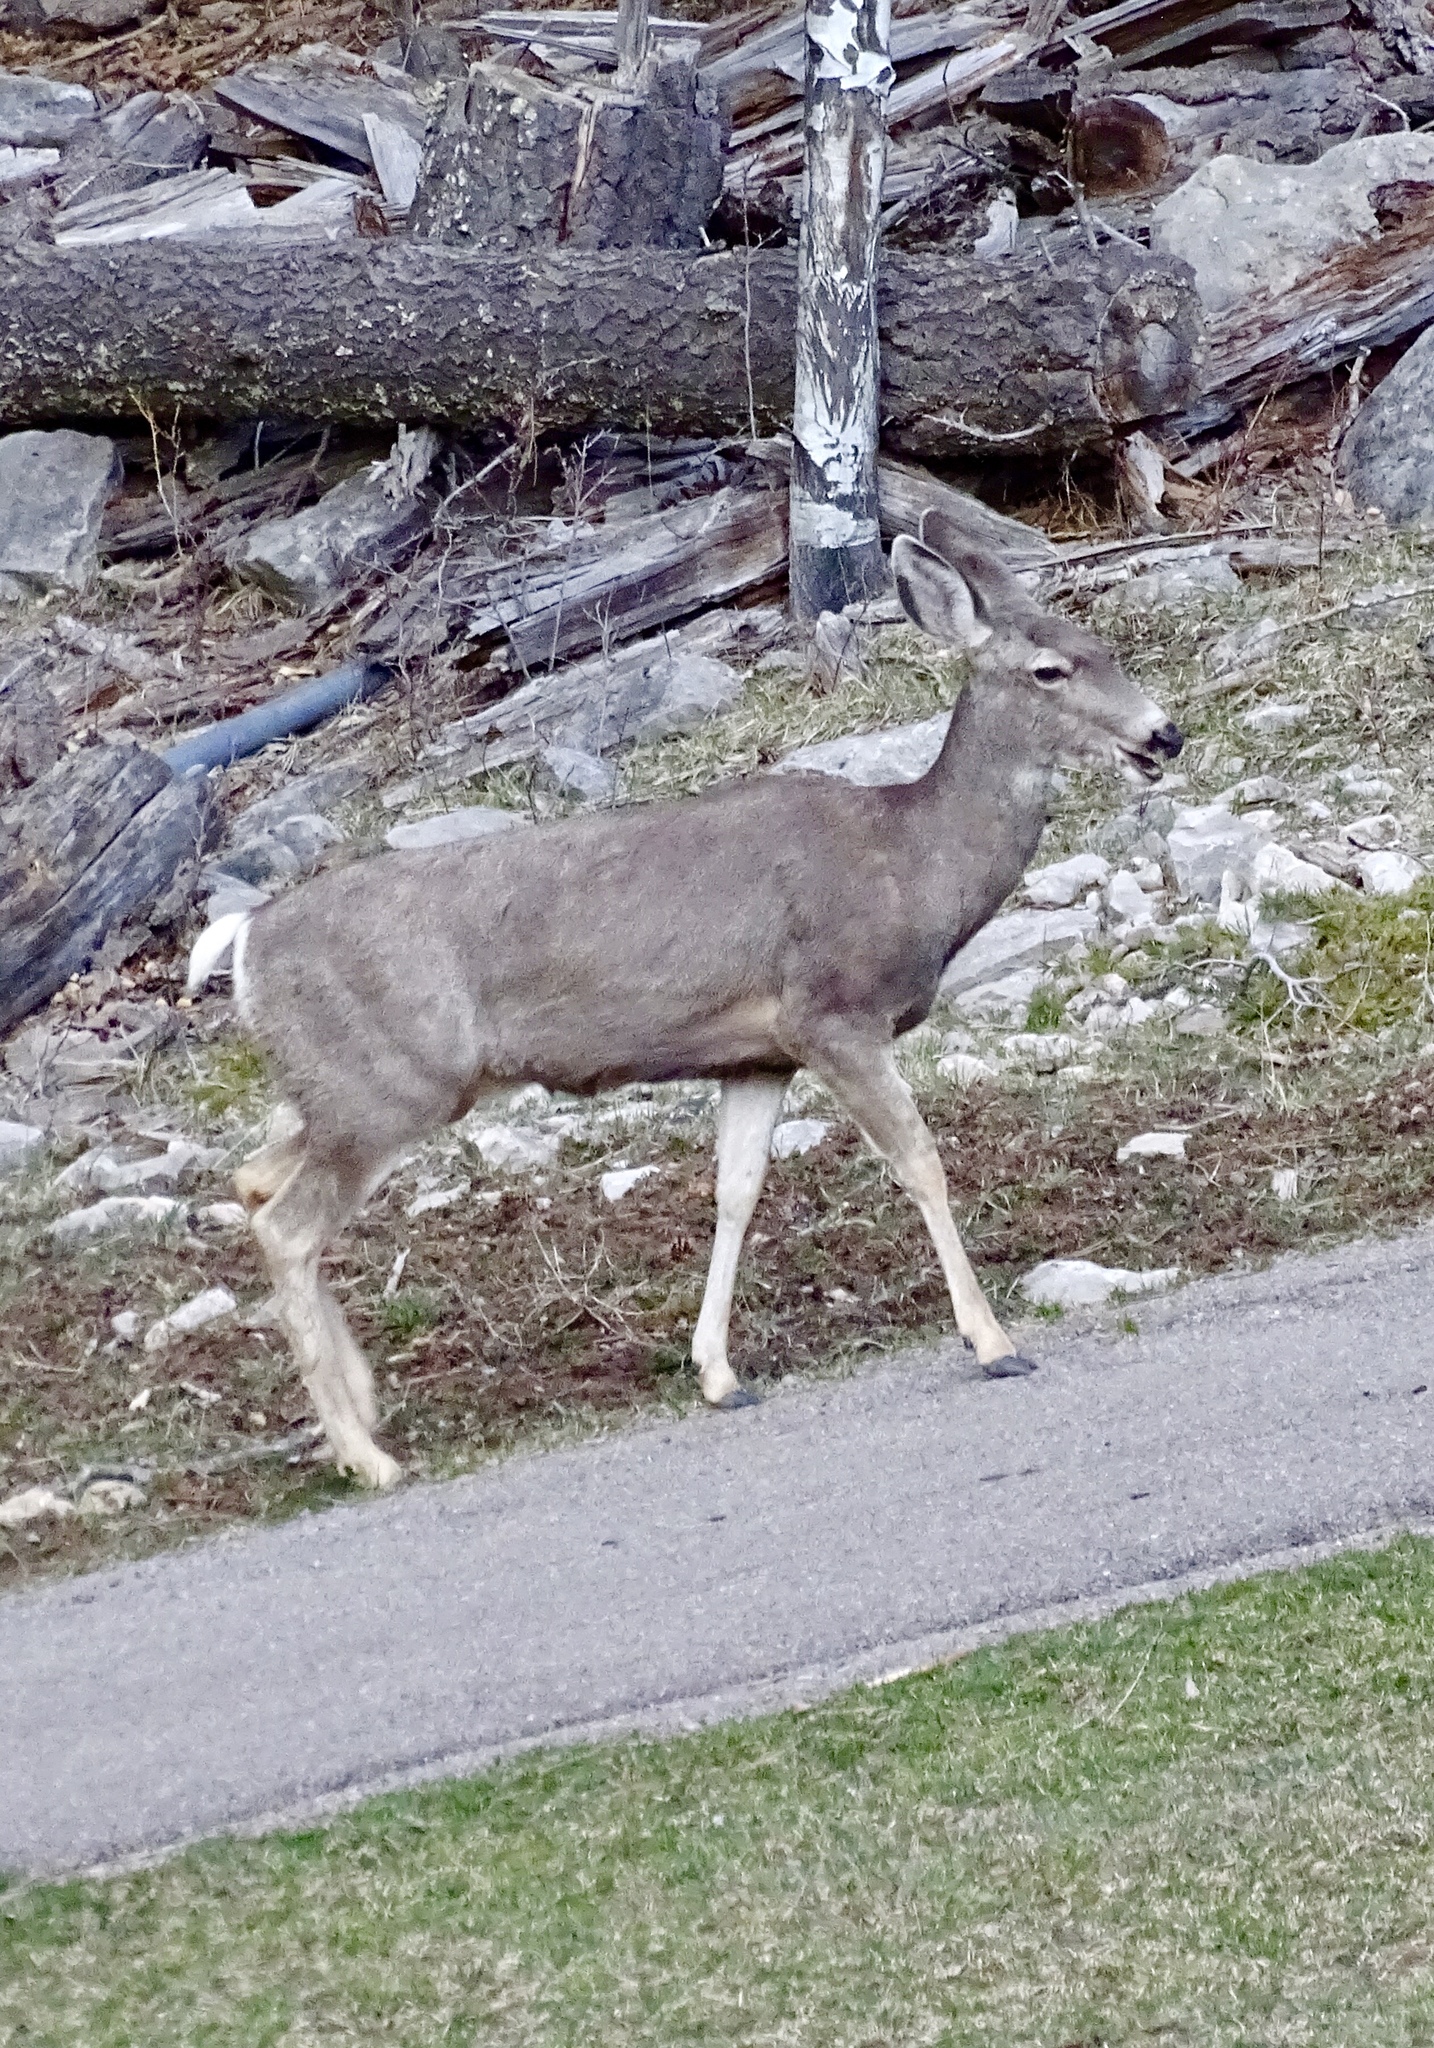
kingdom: Animalia
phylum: Chordata
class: Mammalia
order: Artiodactyla
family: Cervidae
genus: Odocoileus
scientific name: Odocoileus hemionus
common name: Mule deer
